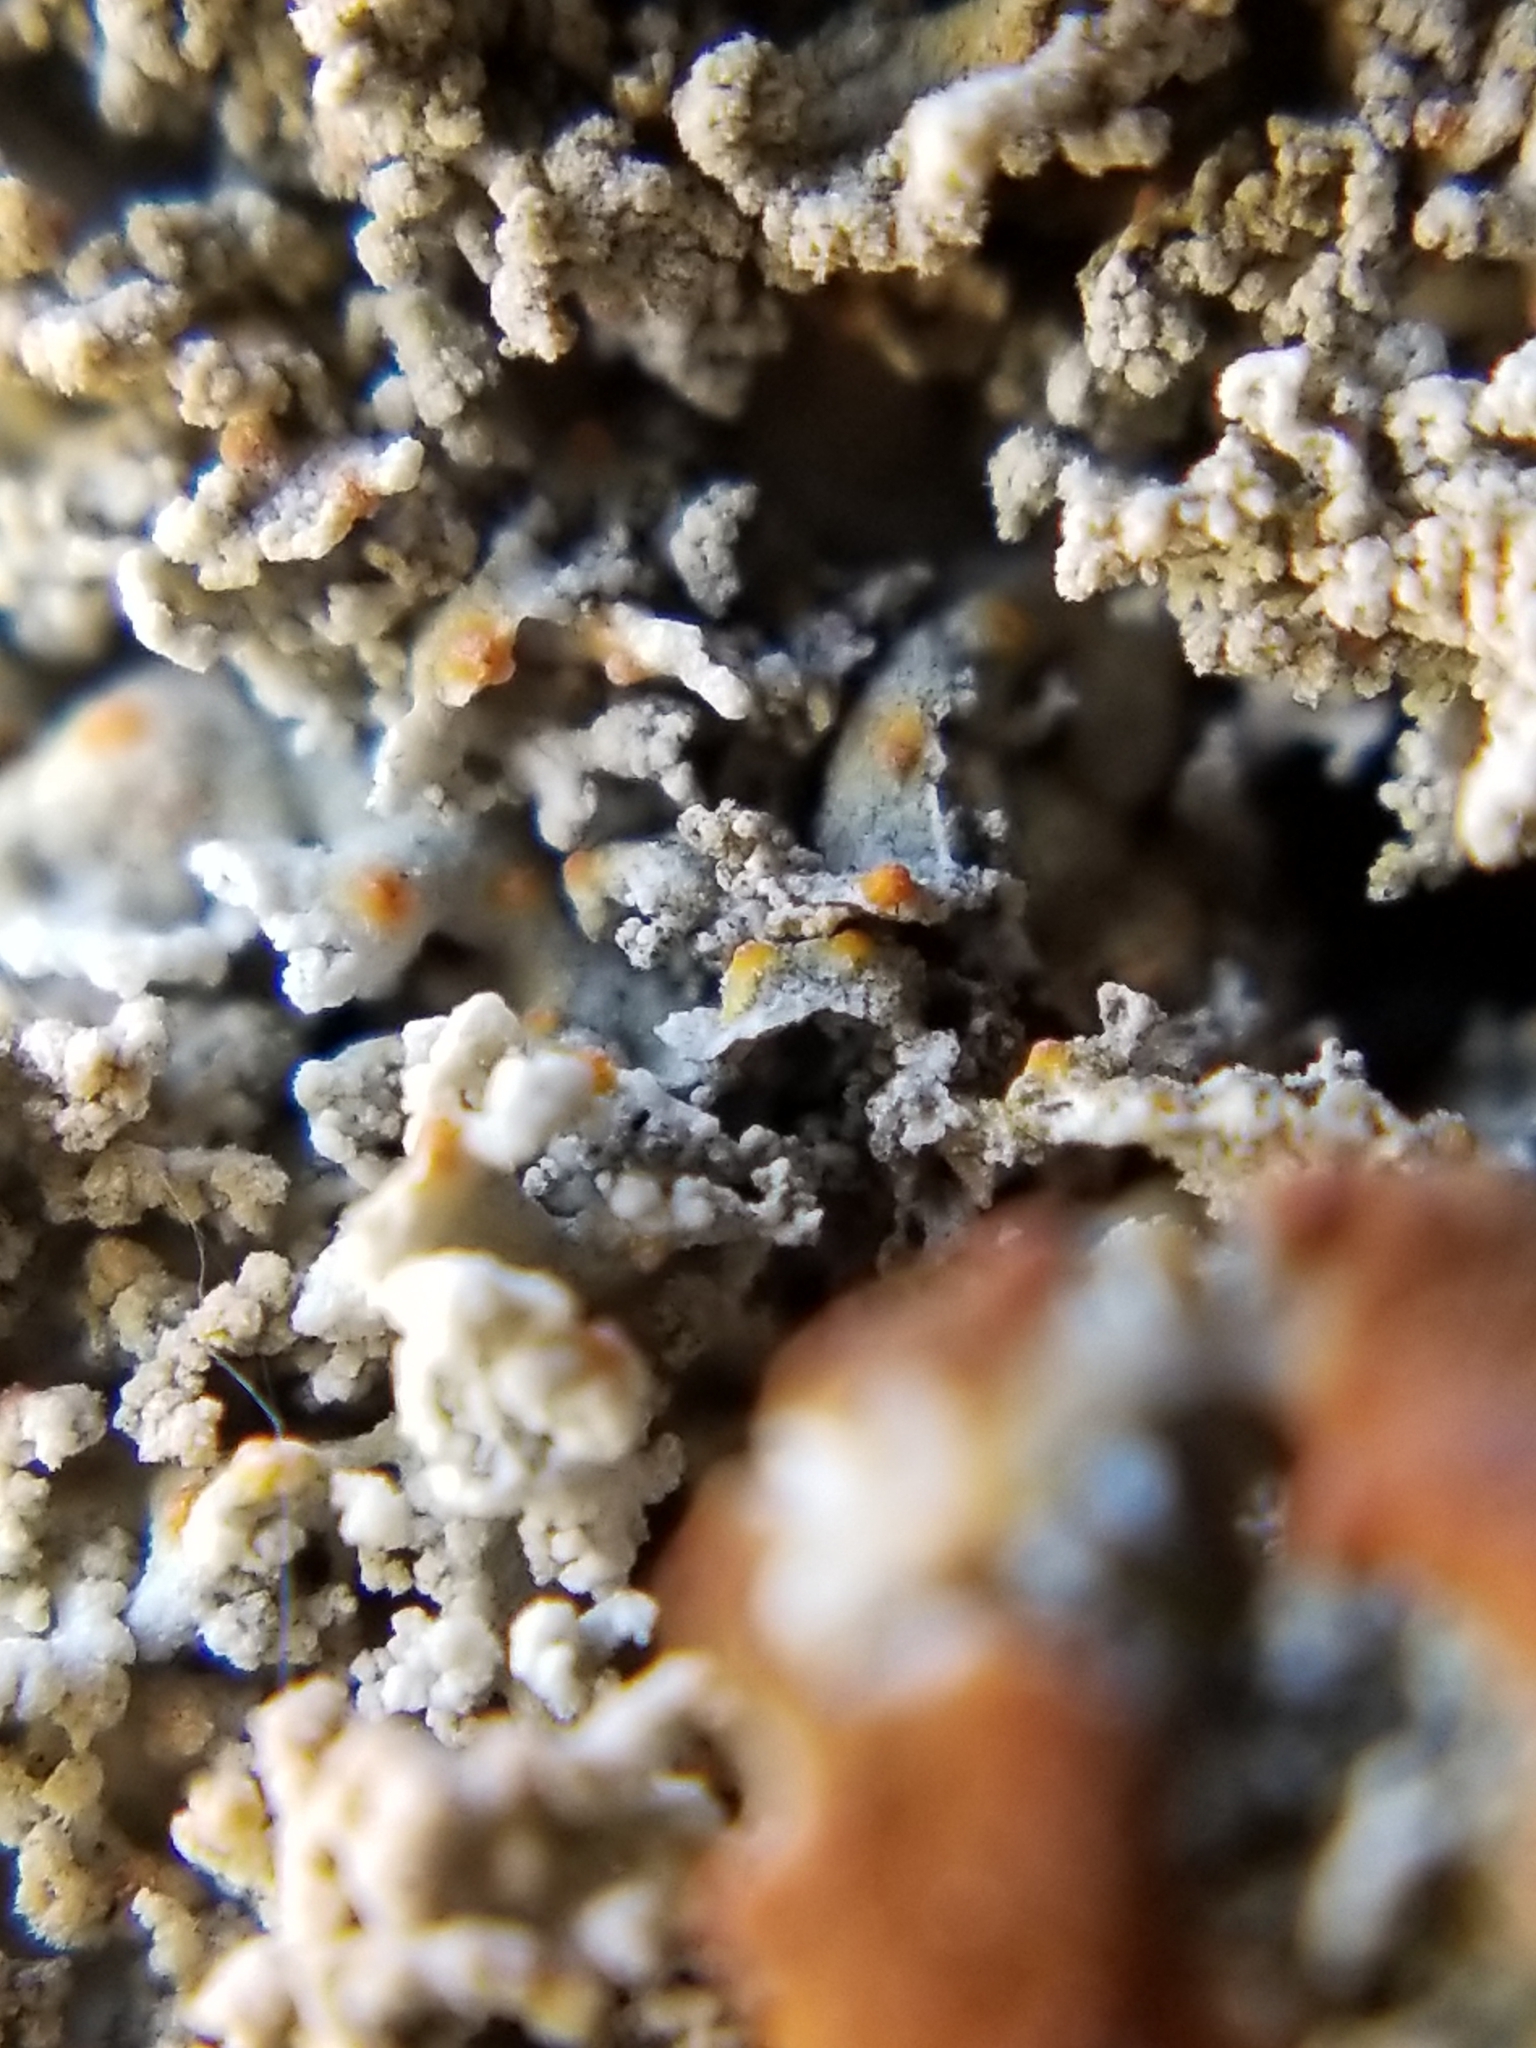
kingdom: Fungi
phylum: Ascomycota
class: Lecanoromycetes
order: Teloschistales
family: Teloschistaceae
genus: Xanthaptychia
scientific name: Xanthaptychia contortuplicata
